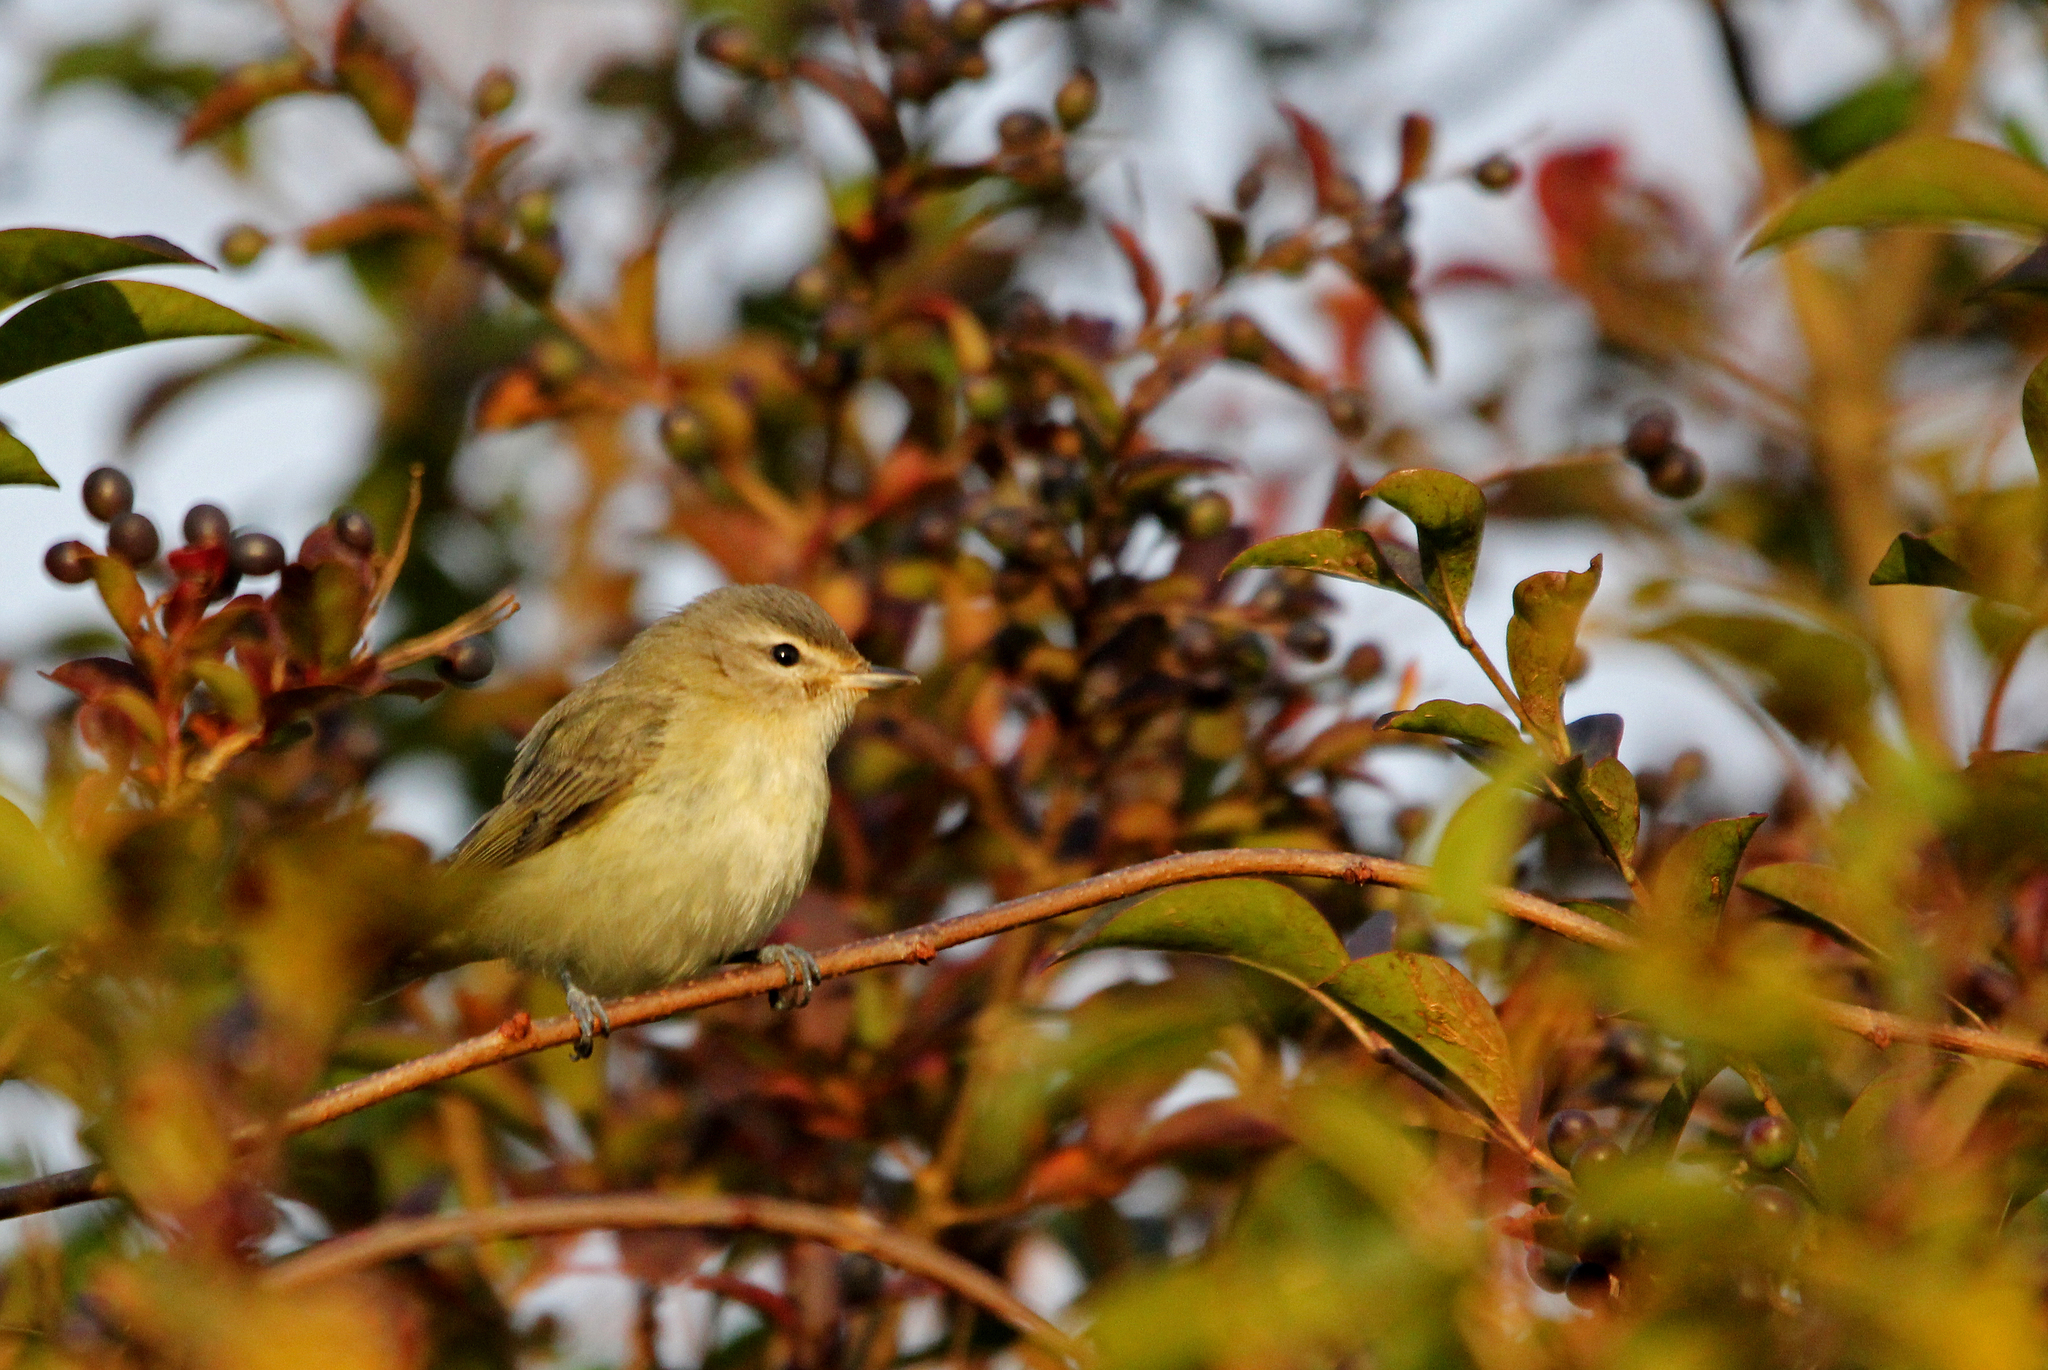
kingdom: Animalia
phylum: Chordata
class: Aves
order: Passeriformes
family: Vireonidae
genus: Vireo
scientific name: Vireo gilvus
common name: Warbling vireo
